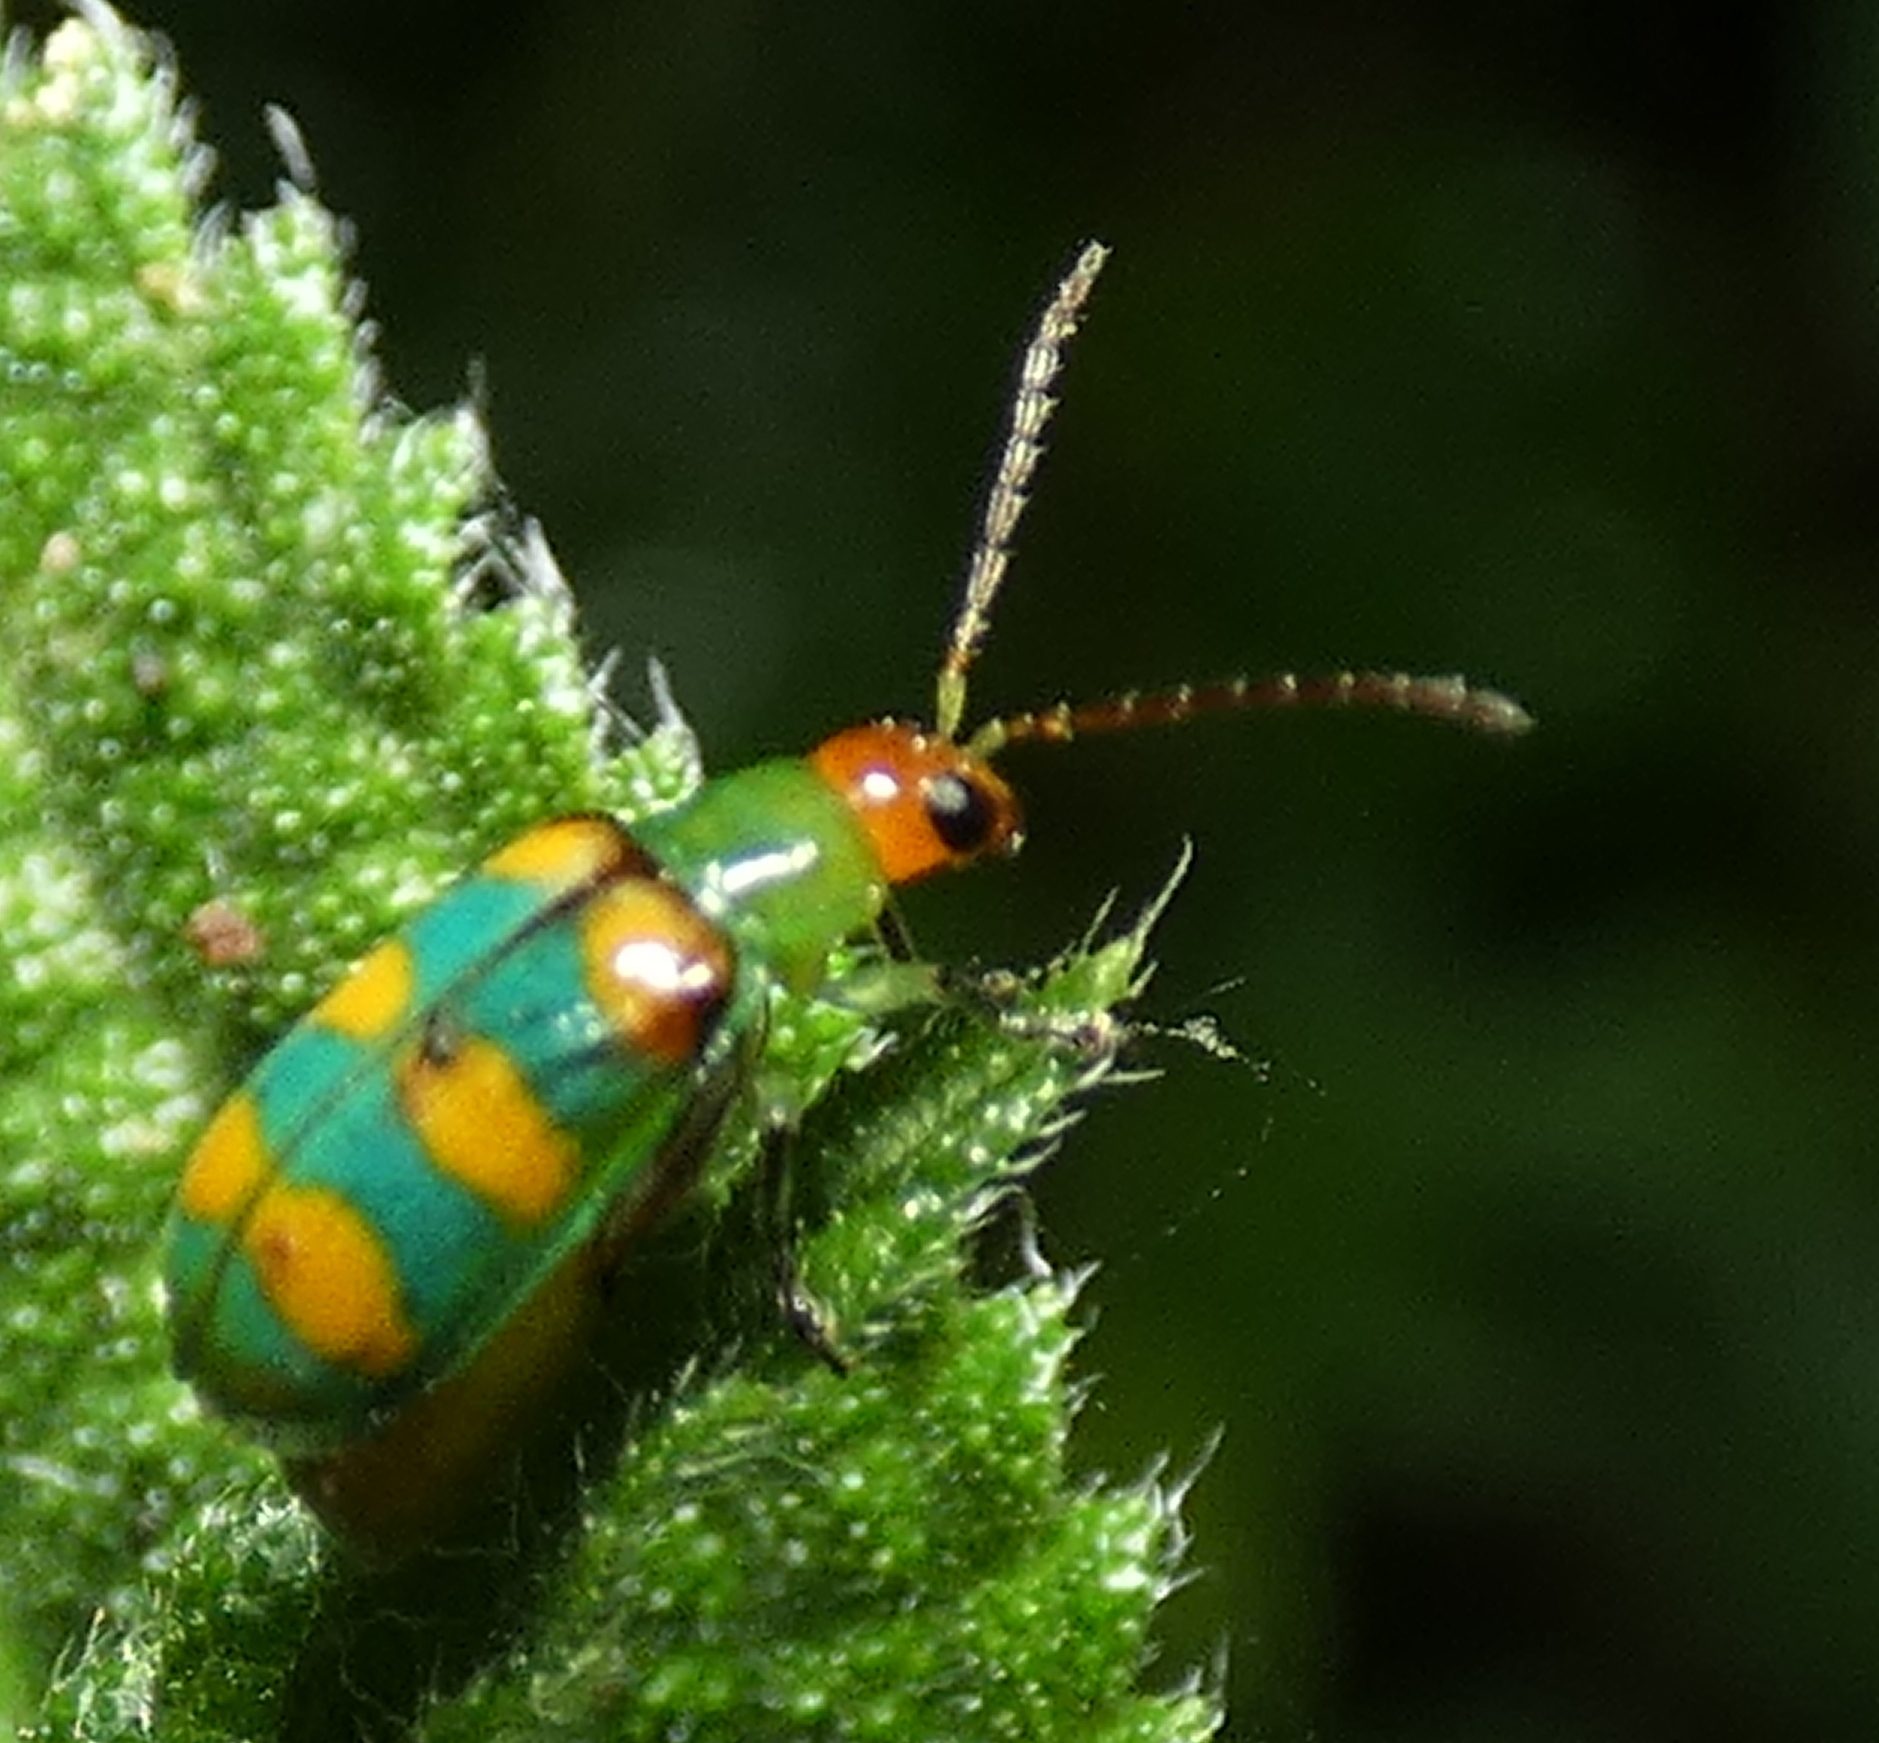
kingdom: Animalia
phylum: Arthropoda
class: Insecta
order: Coleoptera
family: Chrysomelidae
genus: Diabrotica
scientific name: Diabrotica speciosa
